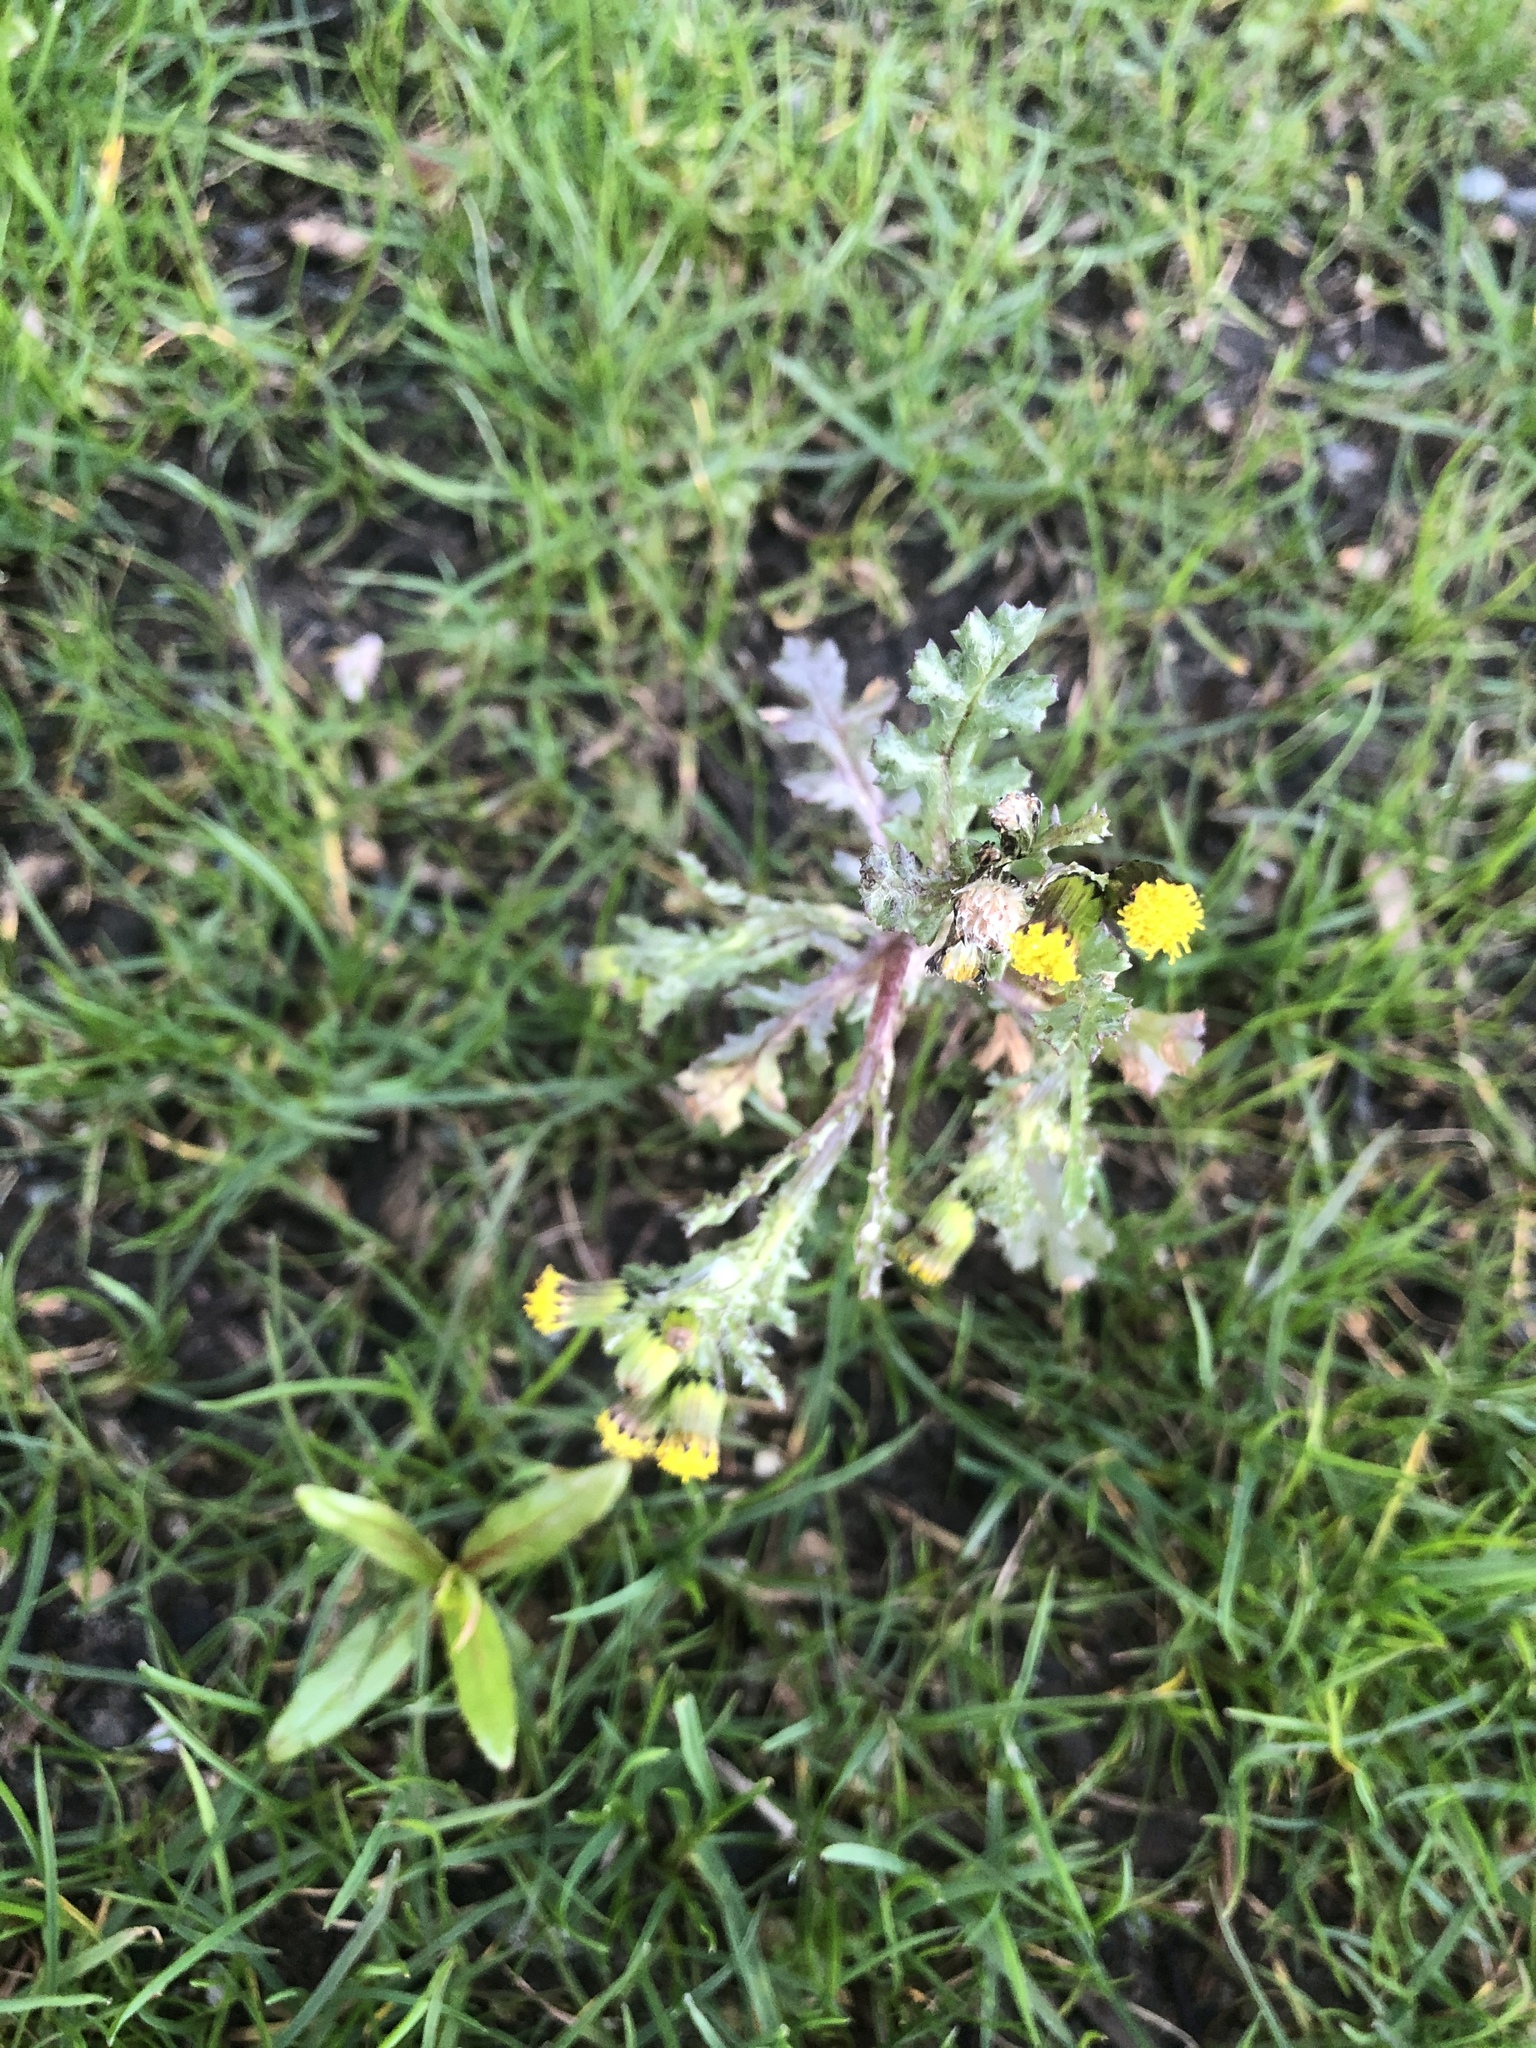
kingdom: Plantae
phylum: Tracheophyta
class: Magnoliopsida
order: Asterales
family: Asteraceae
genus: Senecio
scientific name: Senecio vulgaris
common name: Old-man-in-the-spring
